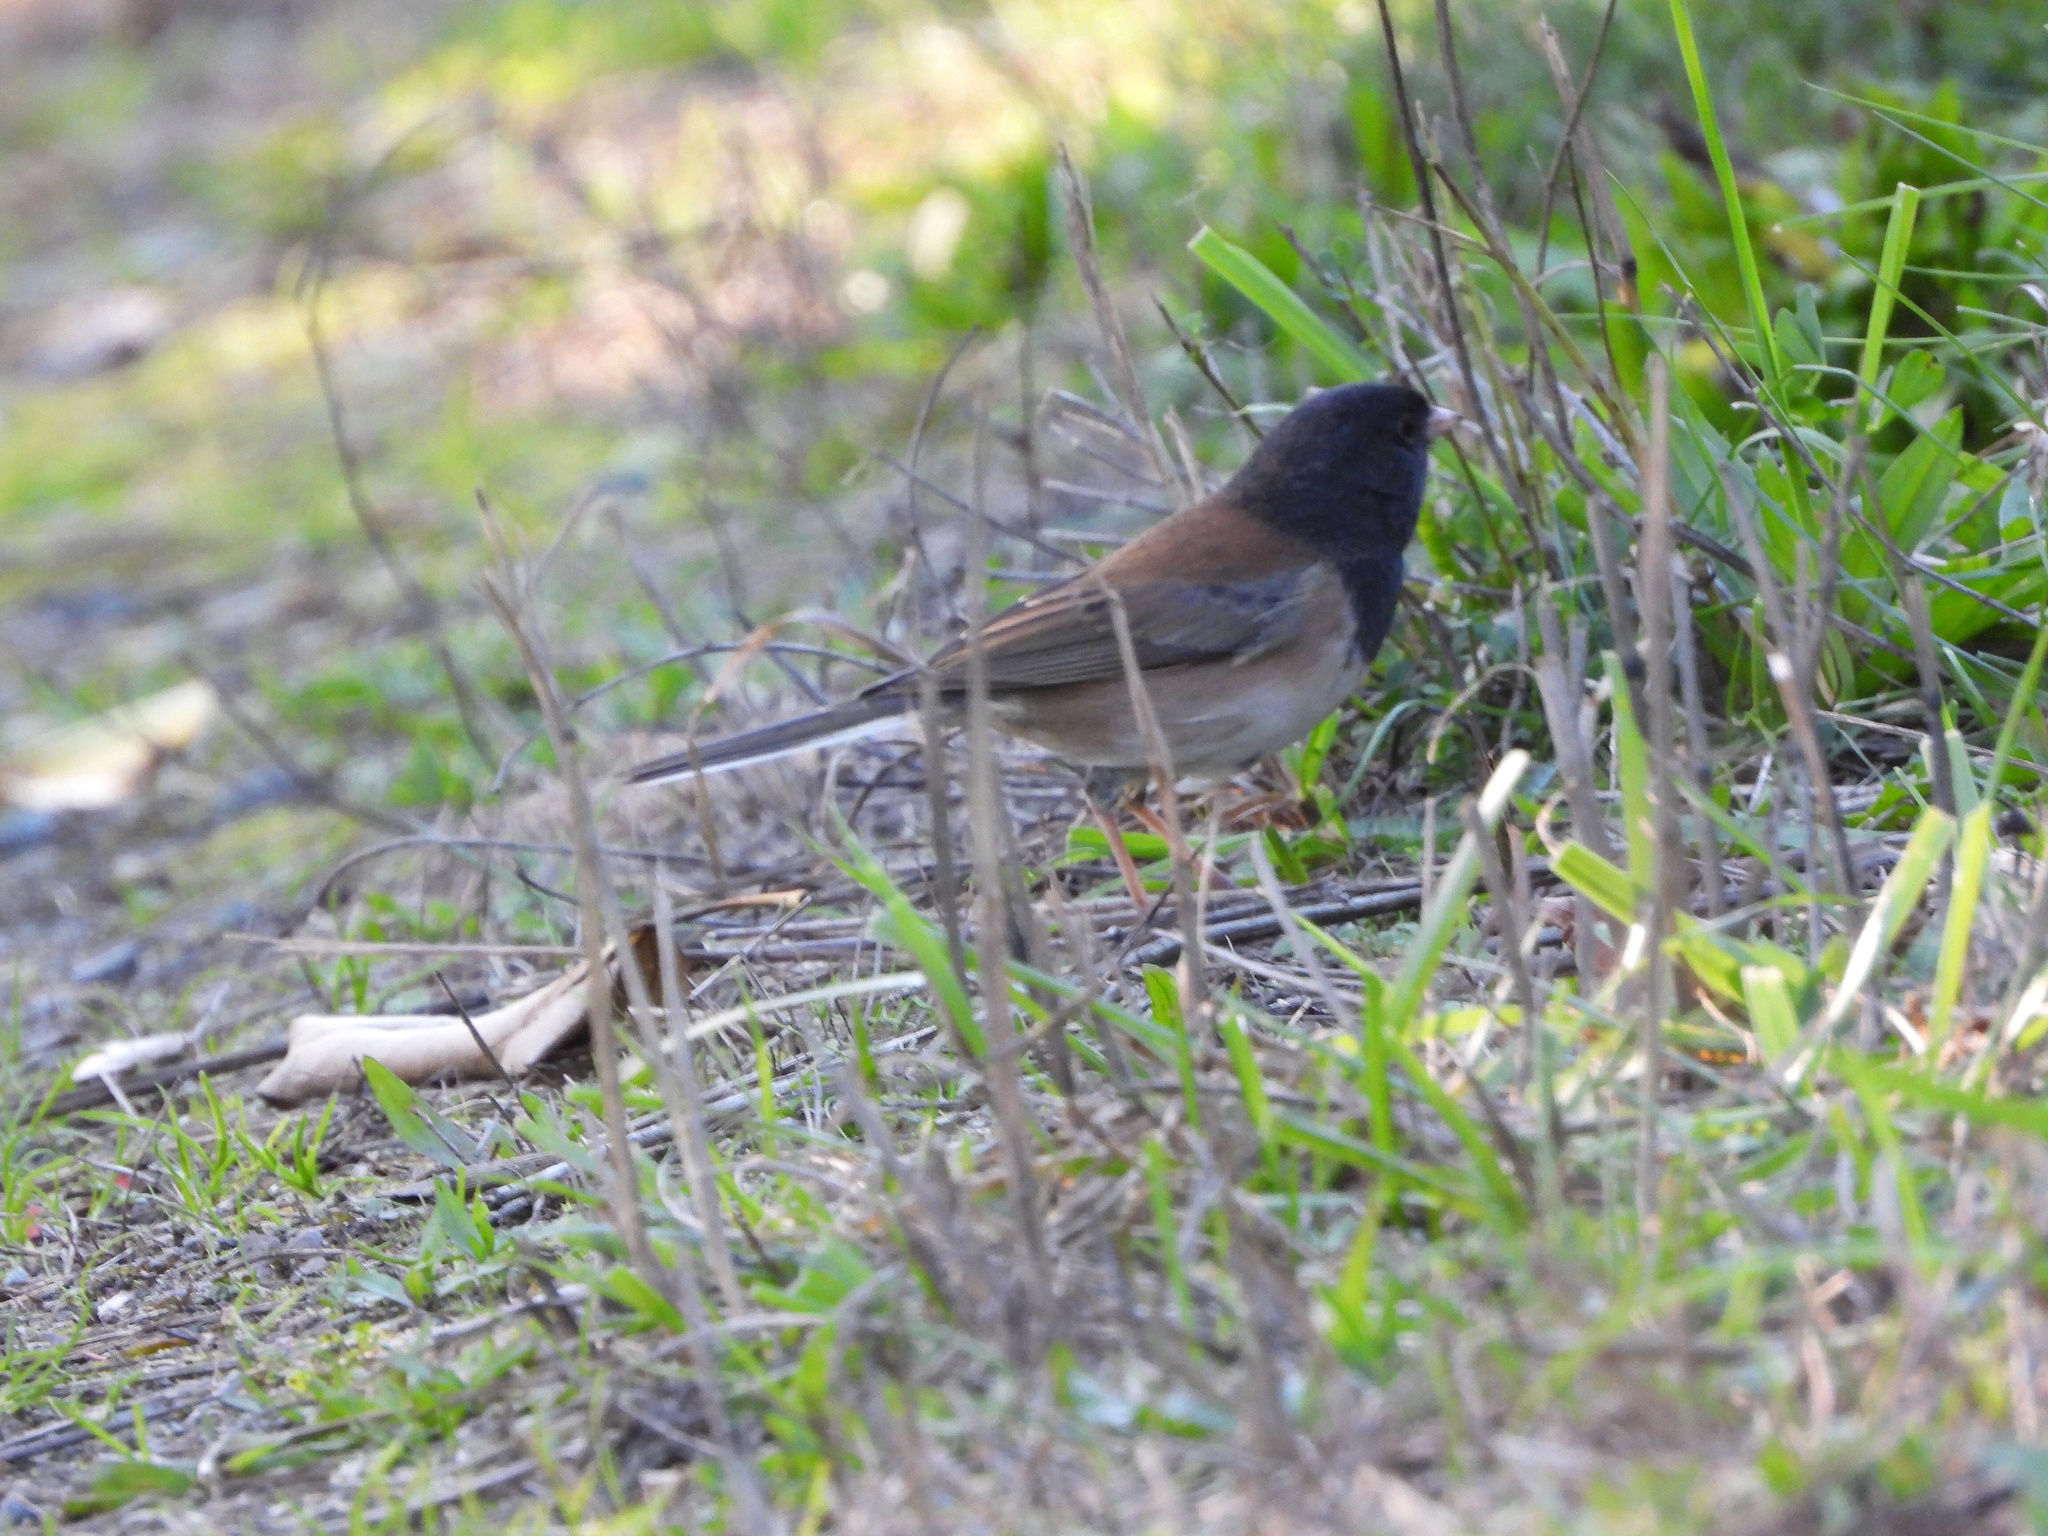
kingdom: Animalia
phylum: Chordata
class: Aves
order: Passeriformes
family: Passerellidae
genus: Junco
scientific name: Junco hyemalis
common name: Dark-eyed junco
